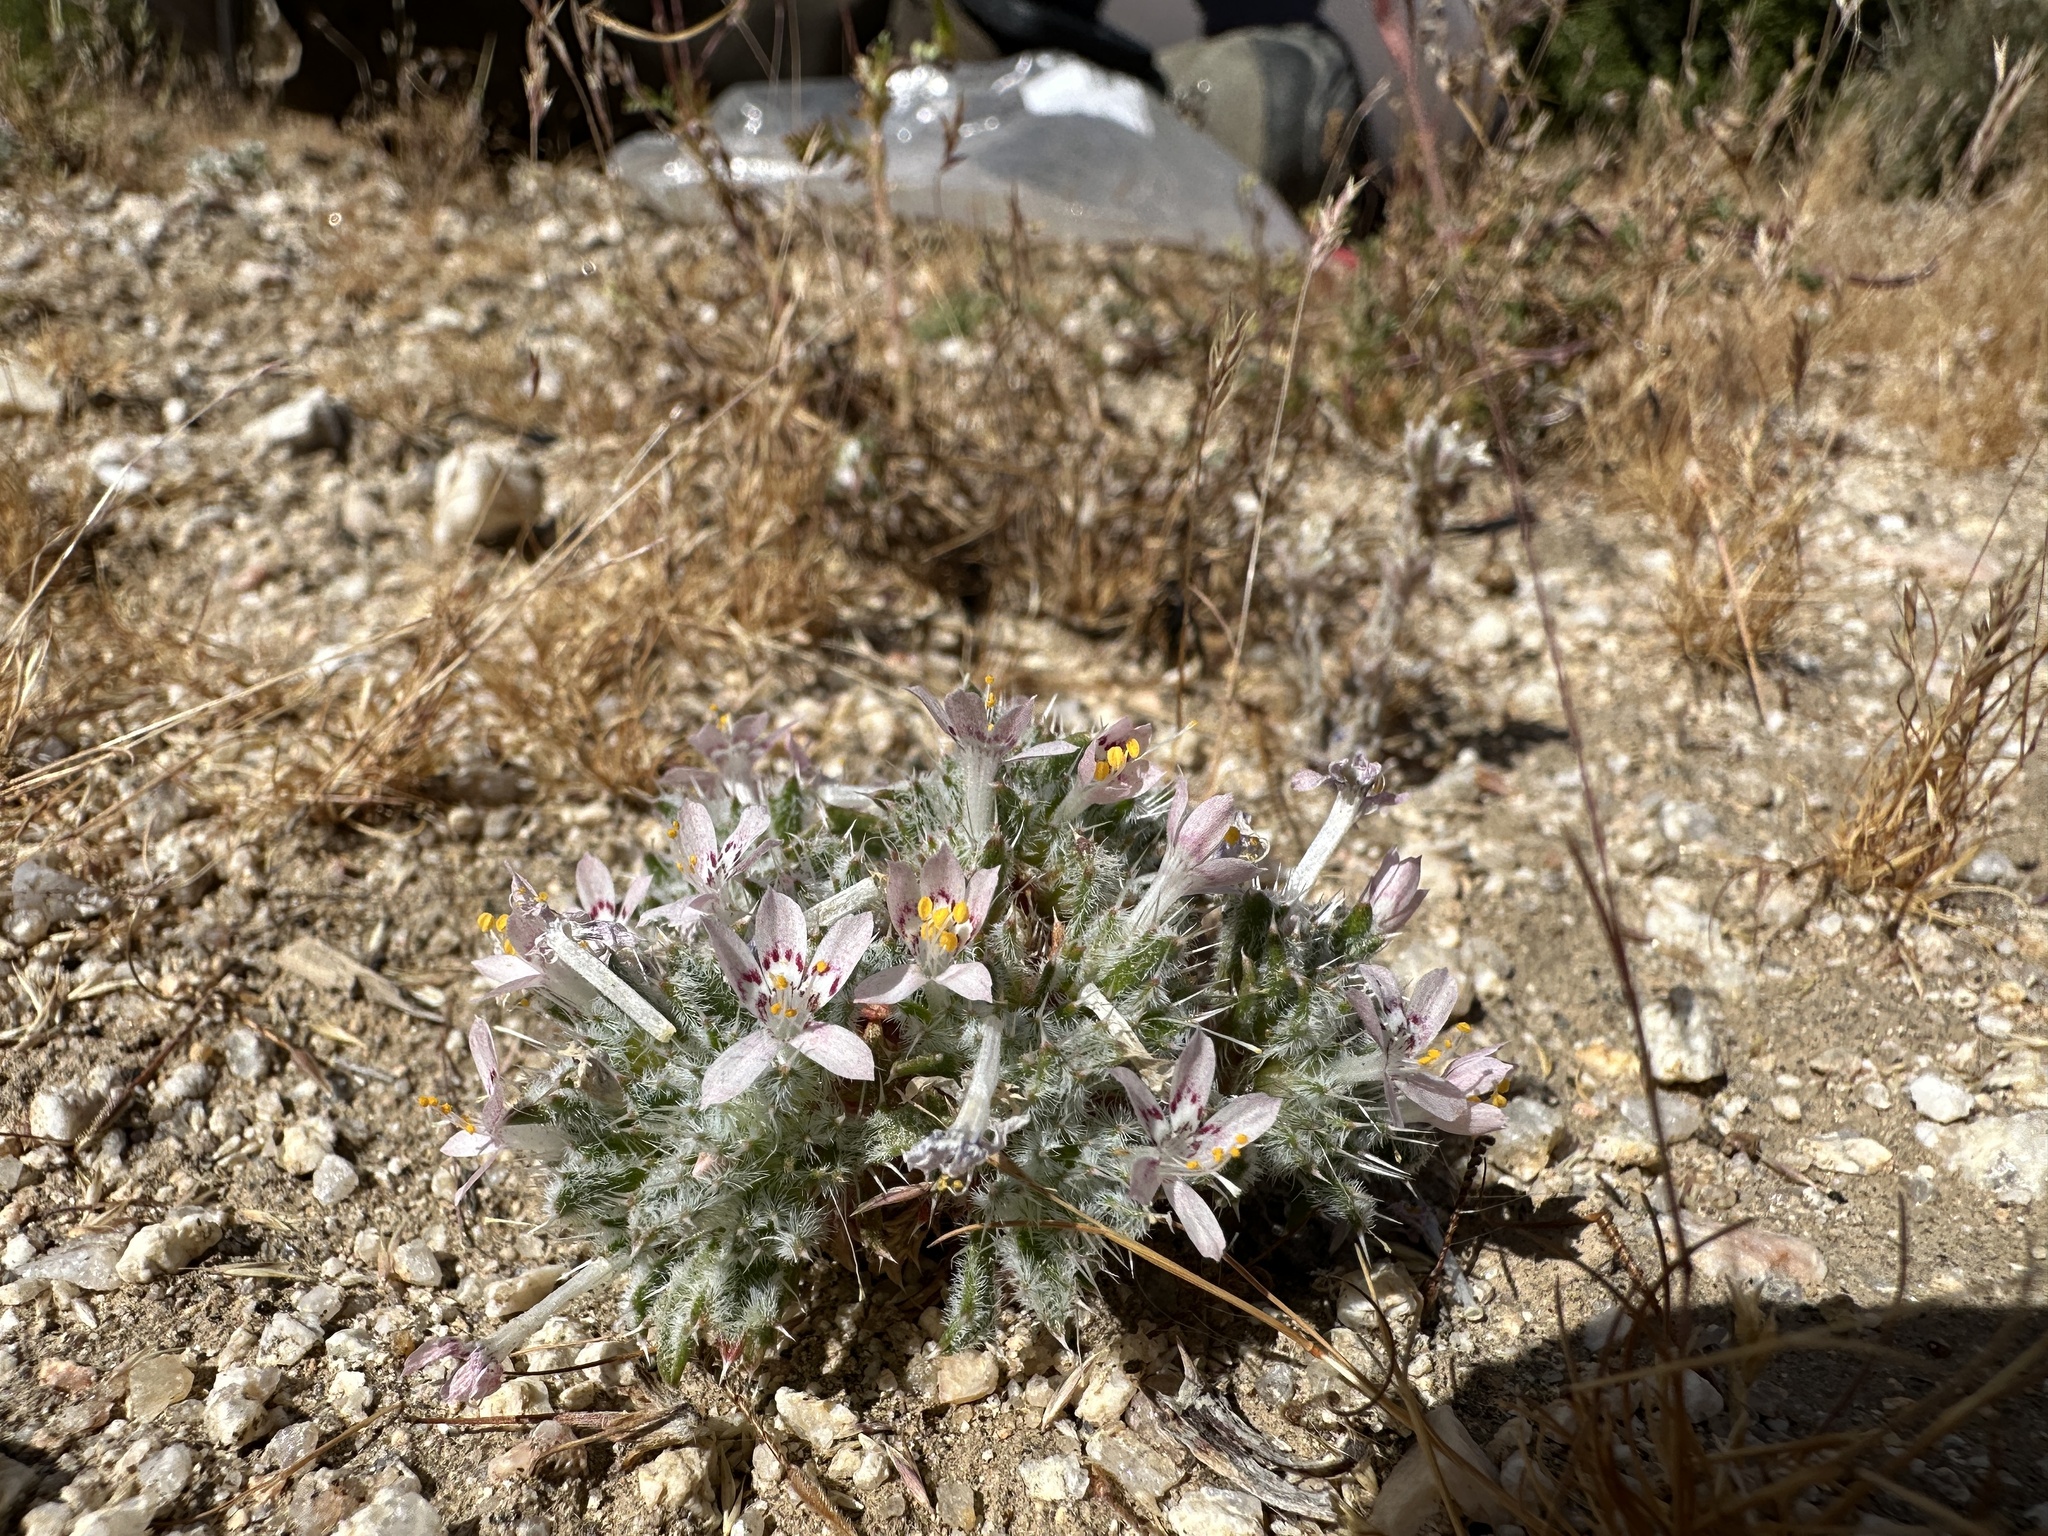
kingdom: Plantae
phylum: Tracheophyta
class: Magnoliopsida
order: Ericales
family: Polemoniaceae
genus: Loeseliastrum
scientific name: Loeseliastrum matthewsii
